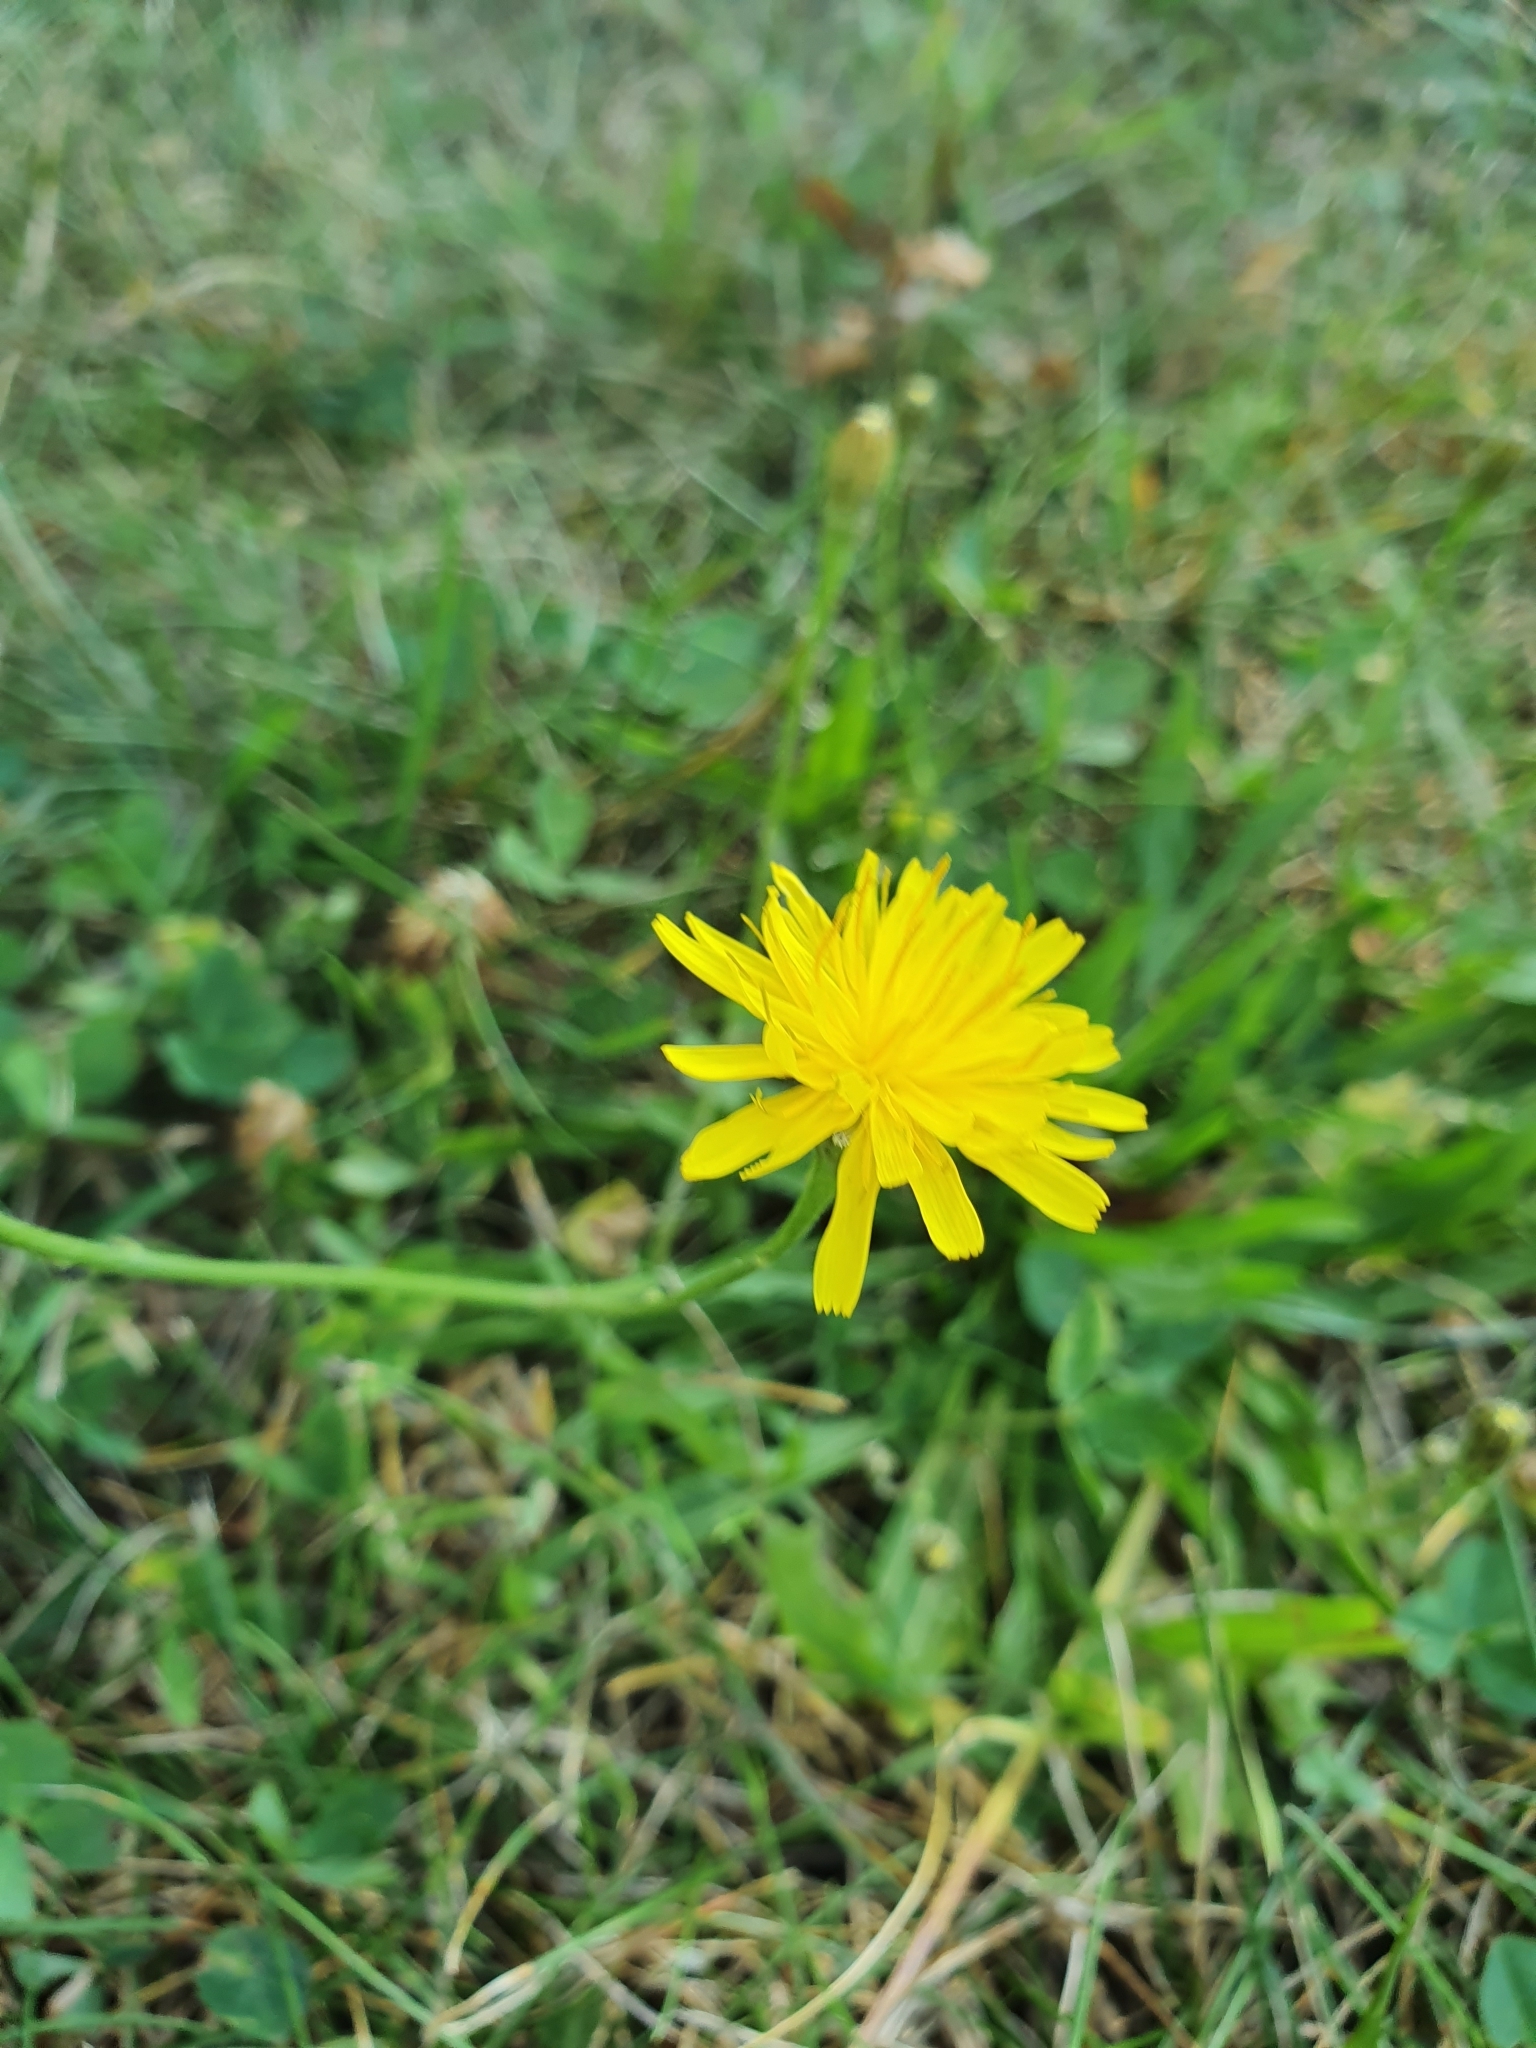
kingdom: Plantae
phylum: Tracheophyta
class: Magnoliopsida
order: Asterales
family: Asteraceae
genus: Scorzoneroides
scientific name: Scorzoneroides autumnalis
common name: Autumn hawkbit
